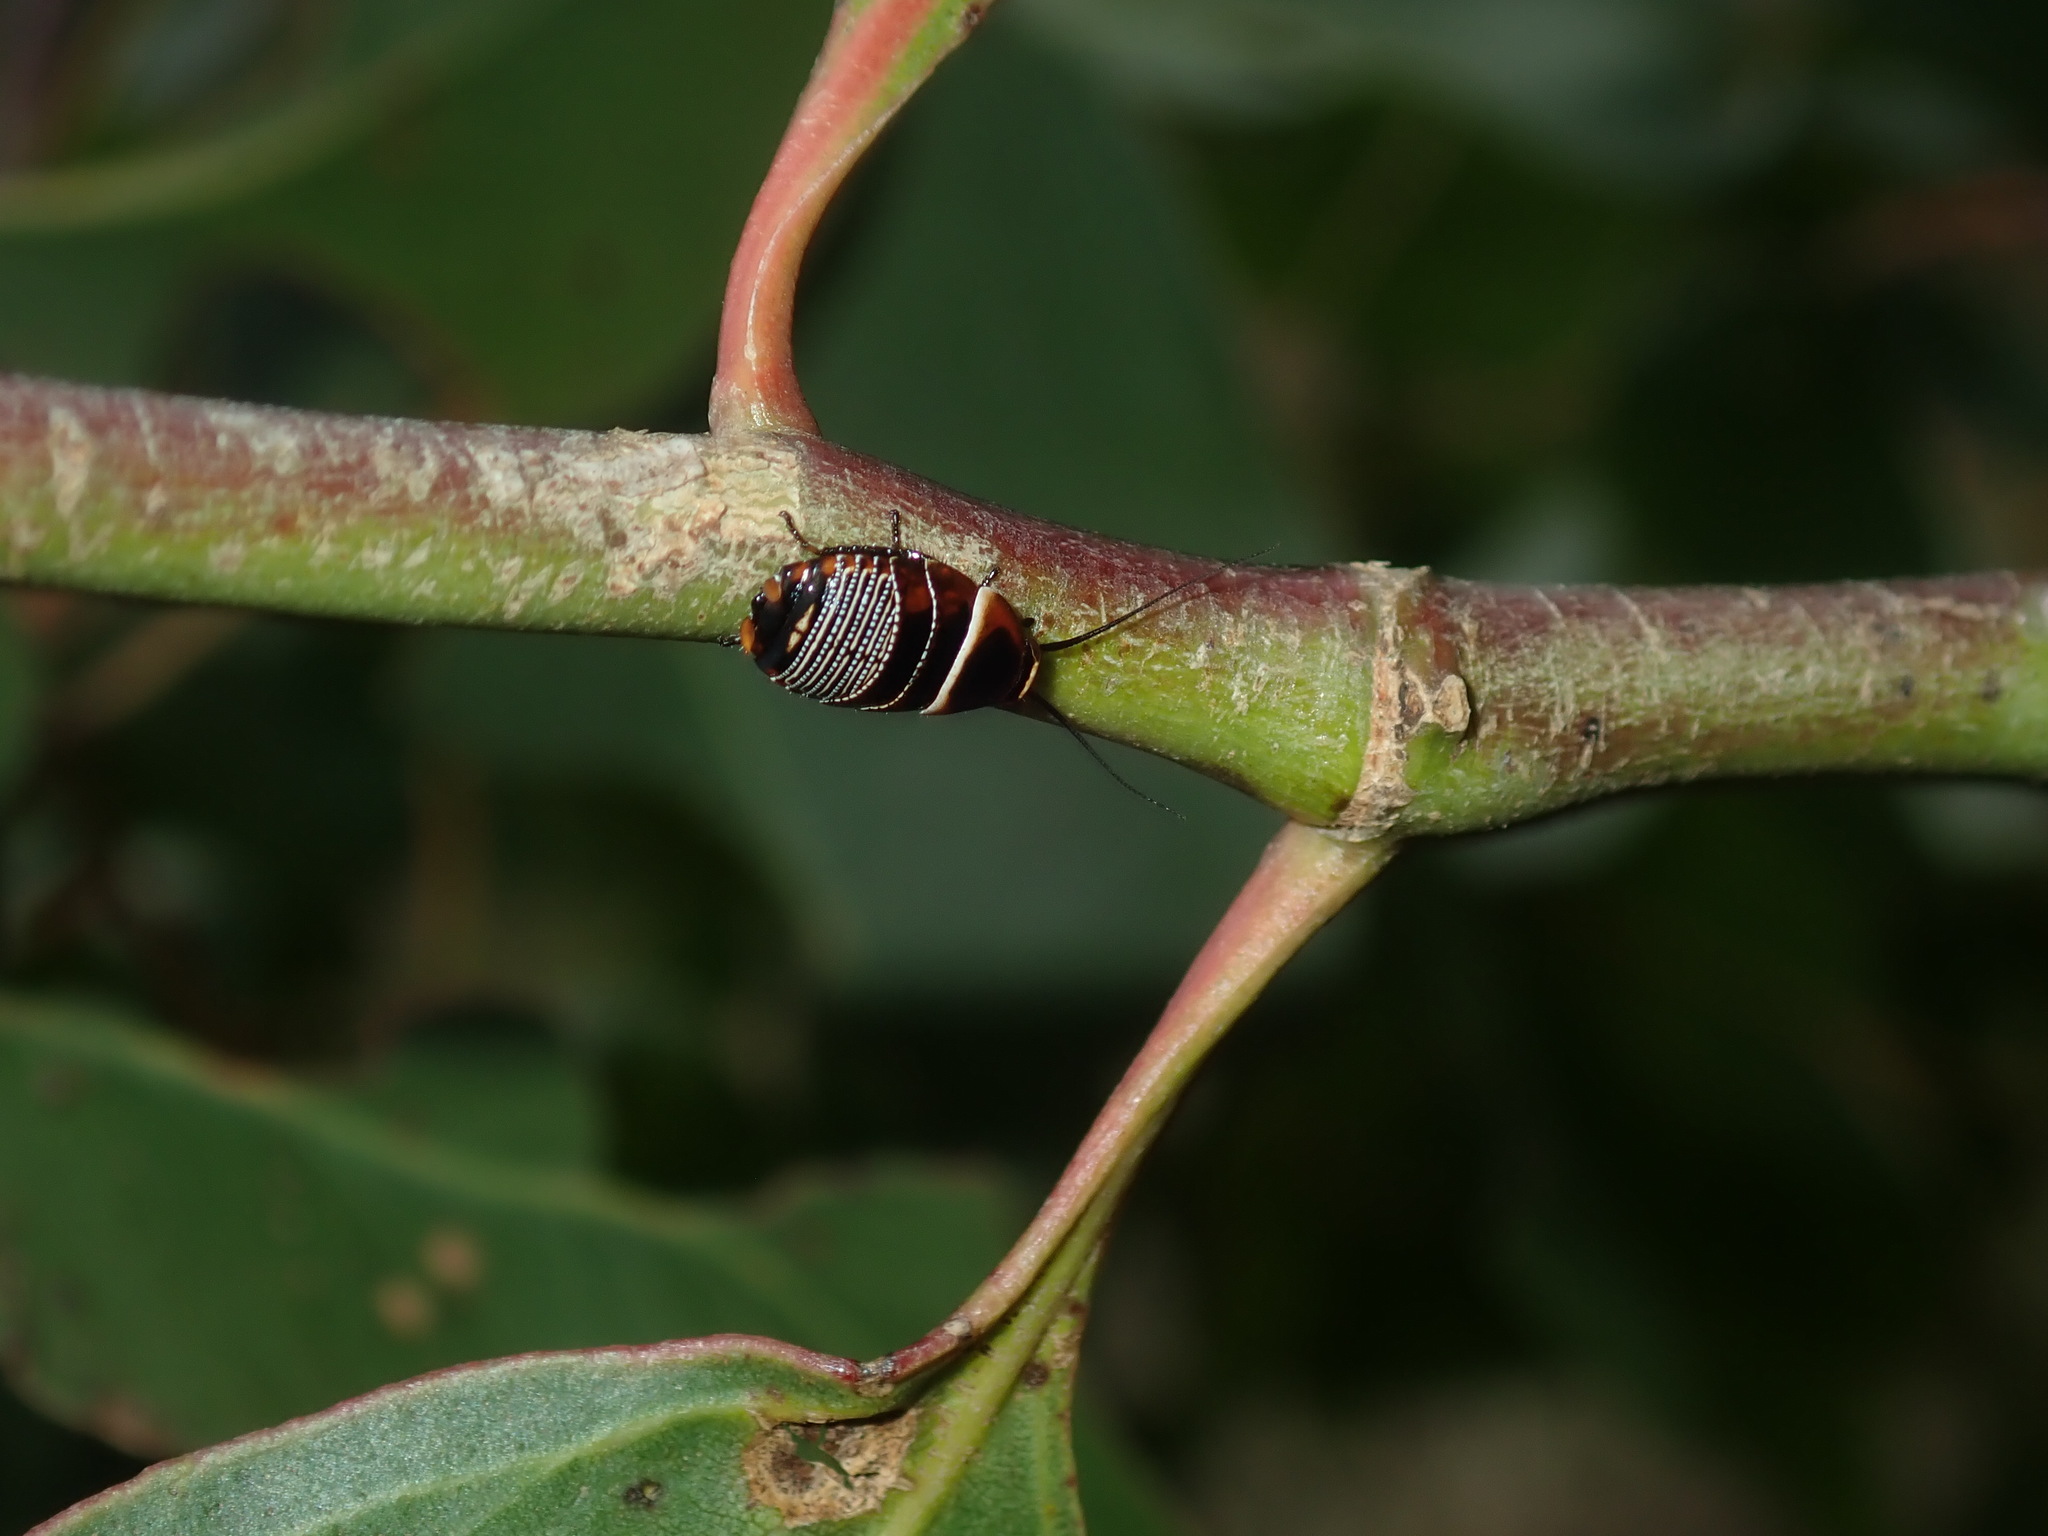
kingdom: Animalia
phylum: Arthropoda
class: Insecta
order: Blattodea
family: Ectobiidae
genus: Ellipsidion
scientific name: Ellipsidion australe
